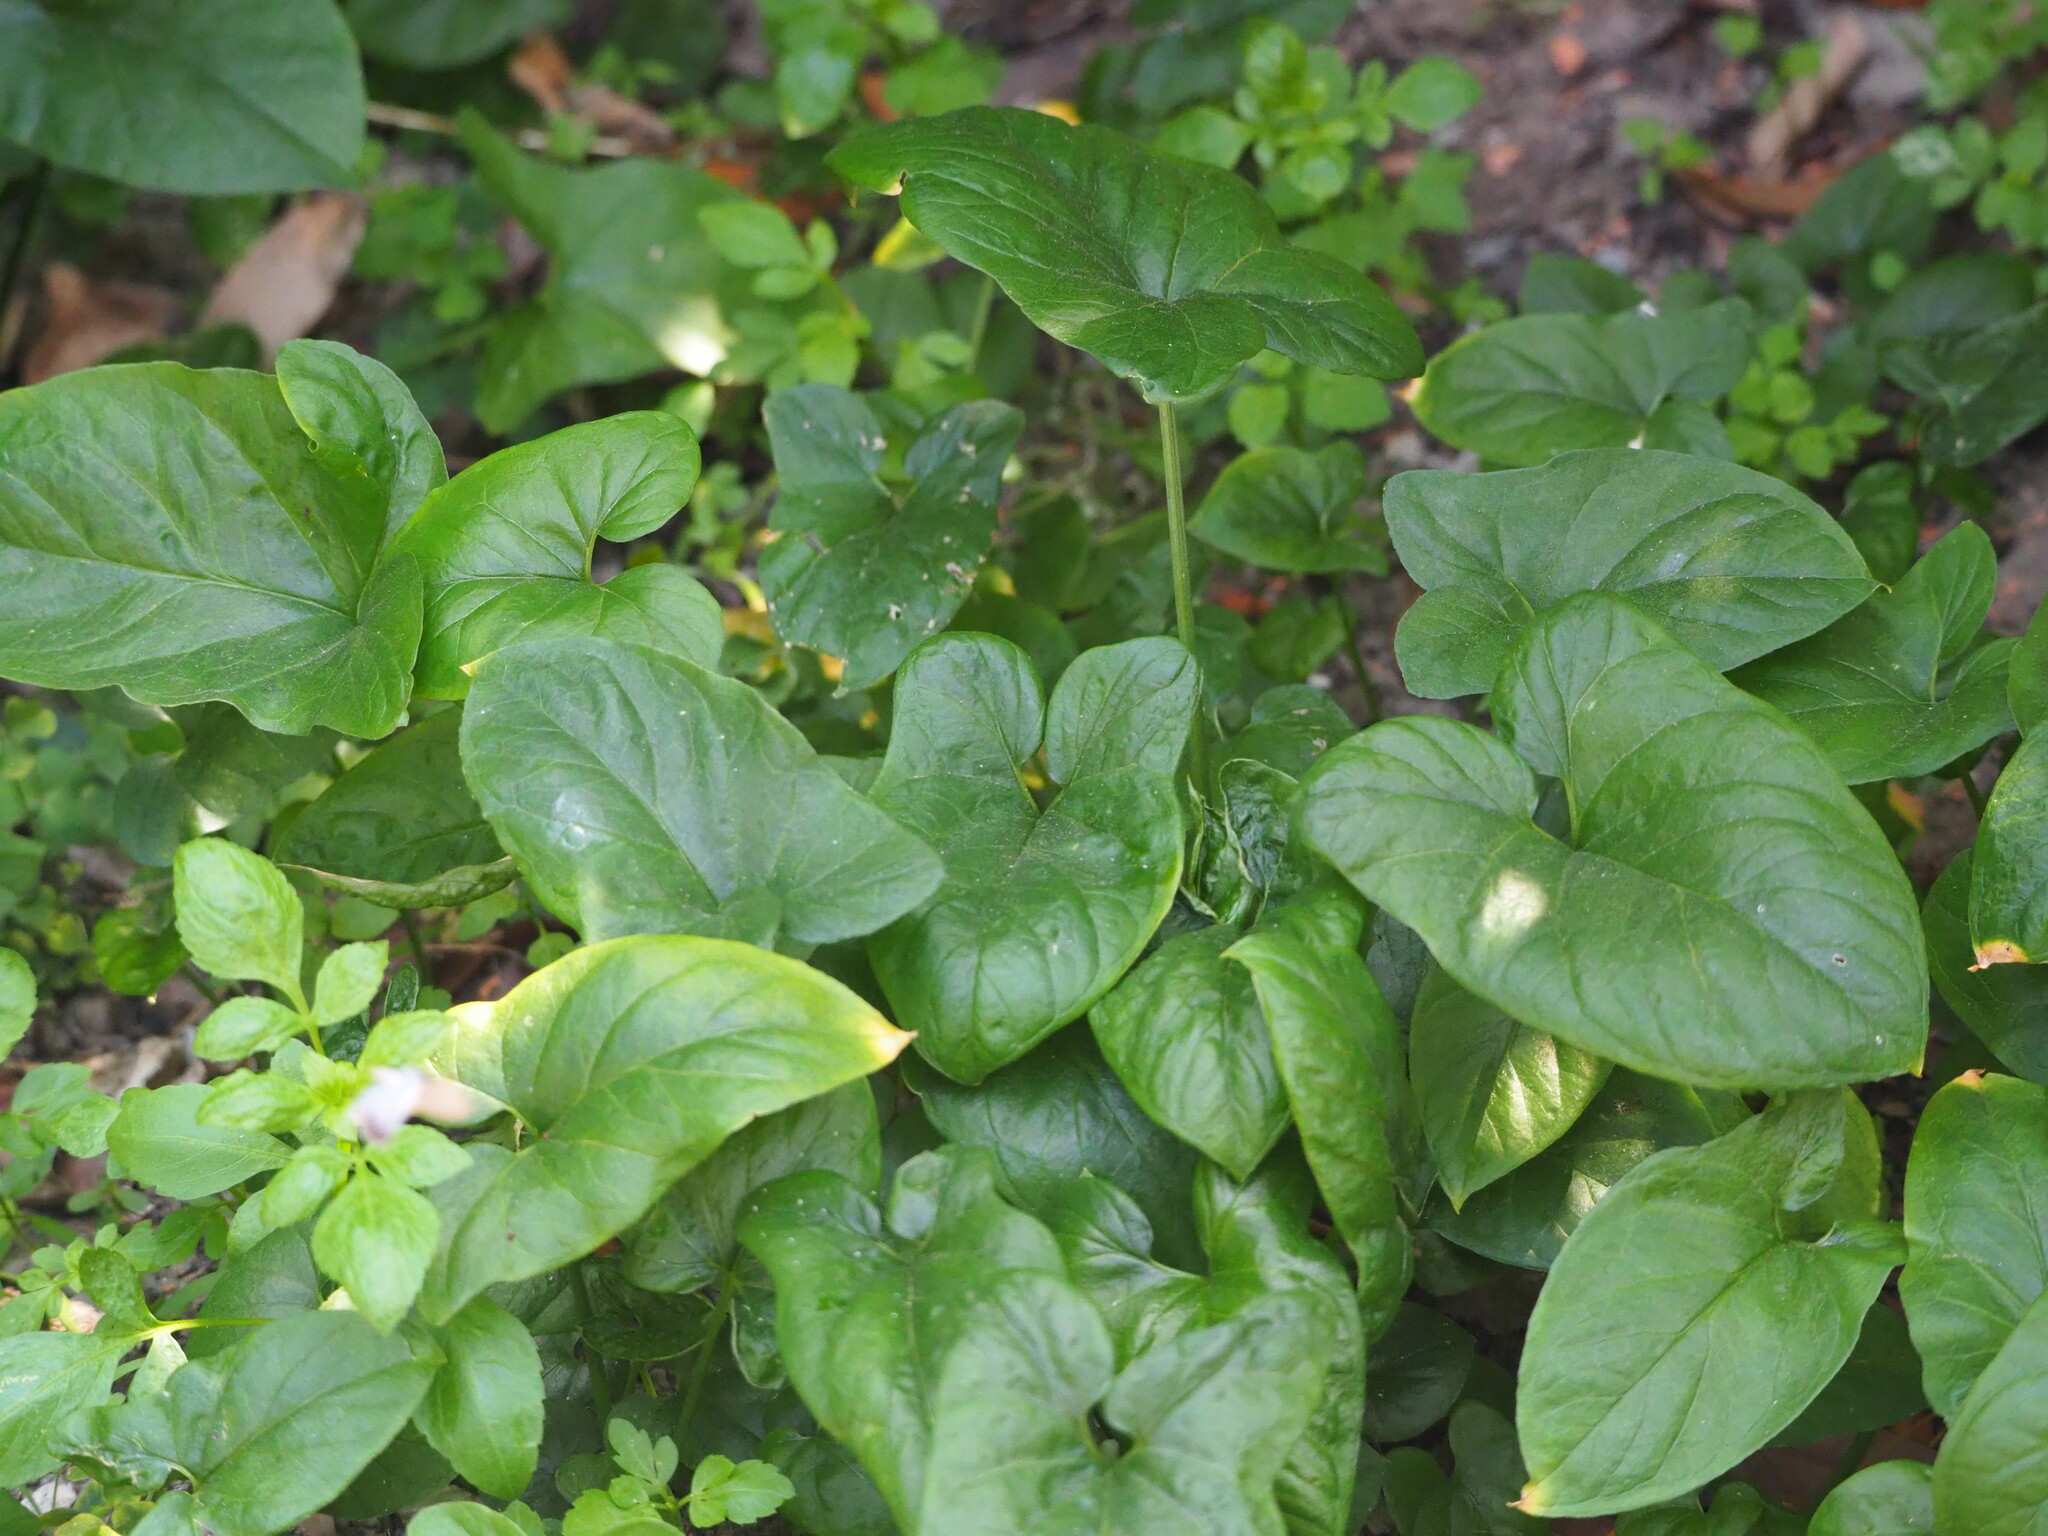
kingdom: Plantae
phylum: Tracheophyta
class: Liliopsida
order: Alismatales
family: Araceae
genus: Typhonium
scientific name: Typhonium roxburghii
